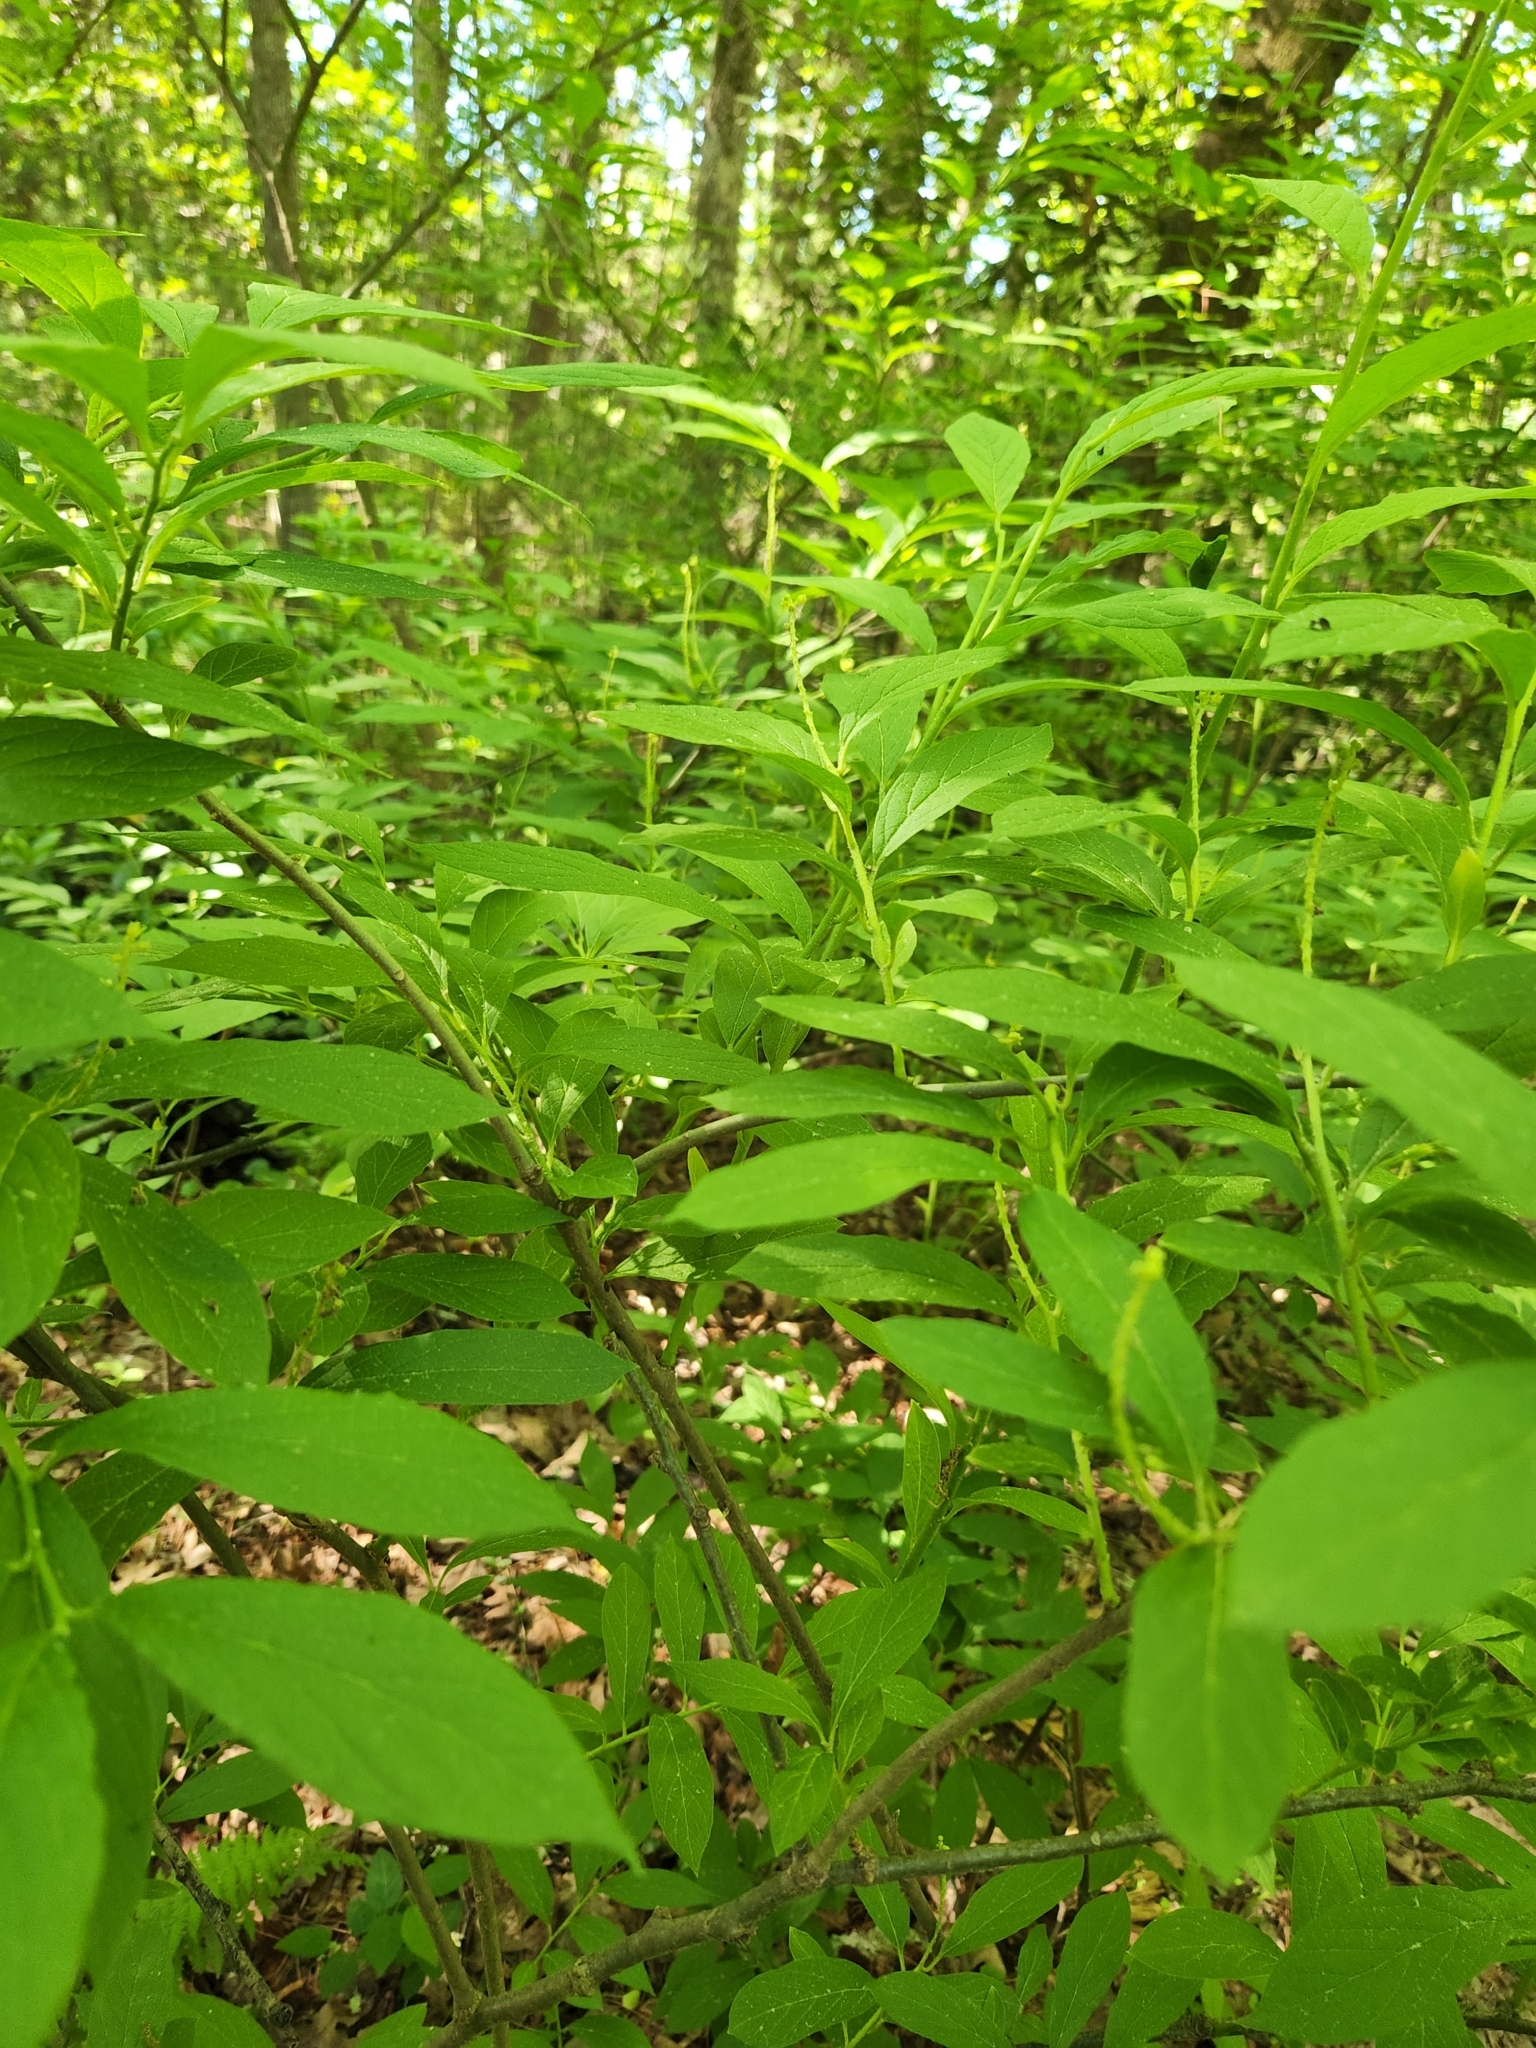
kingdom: Plantae
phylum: Tracheophyta
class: Magnoliopsida
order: Santalales
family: Cervantesiaceae
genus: Pyrularia
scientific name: Pyrularia pubera
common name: Oilnut
